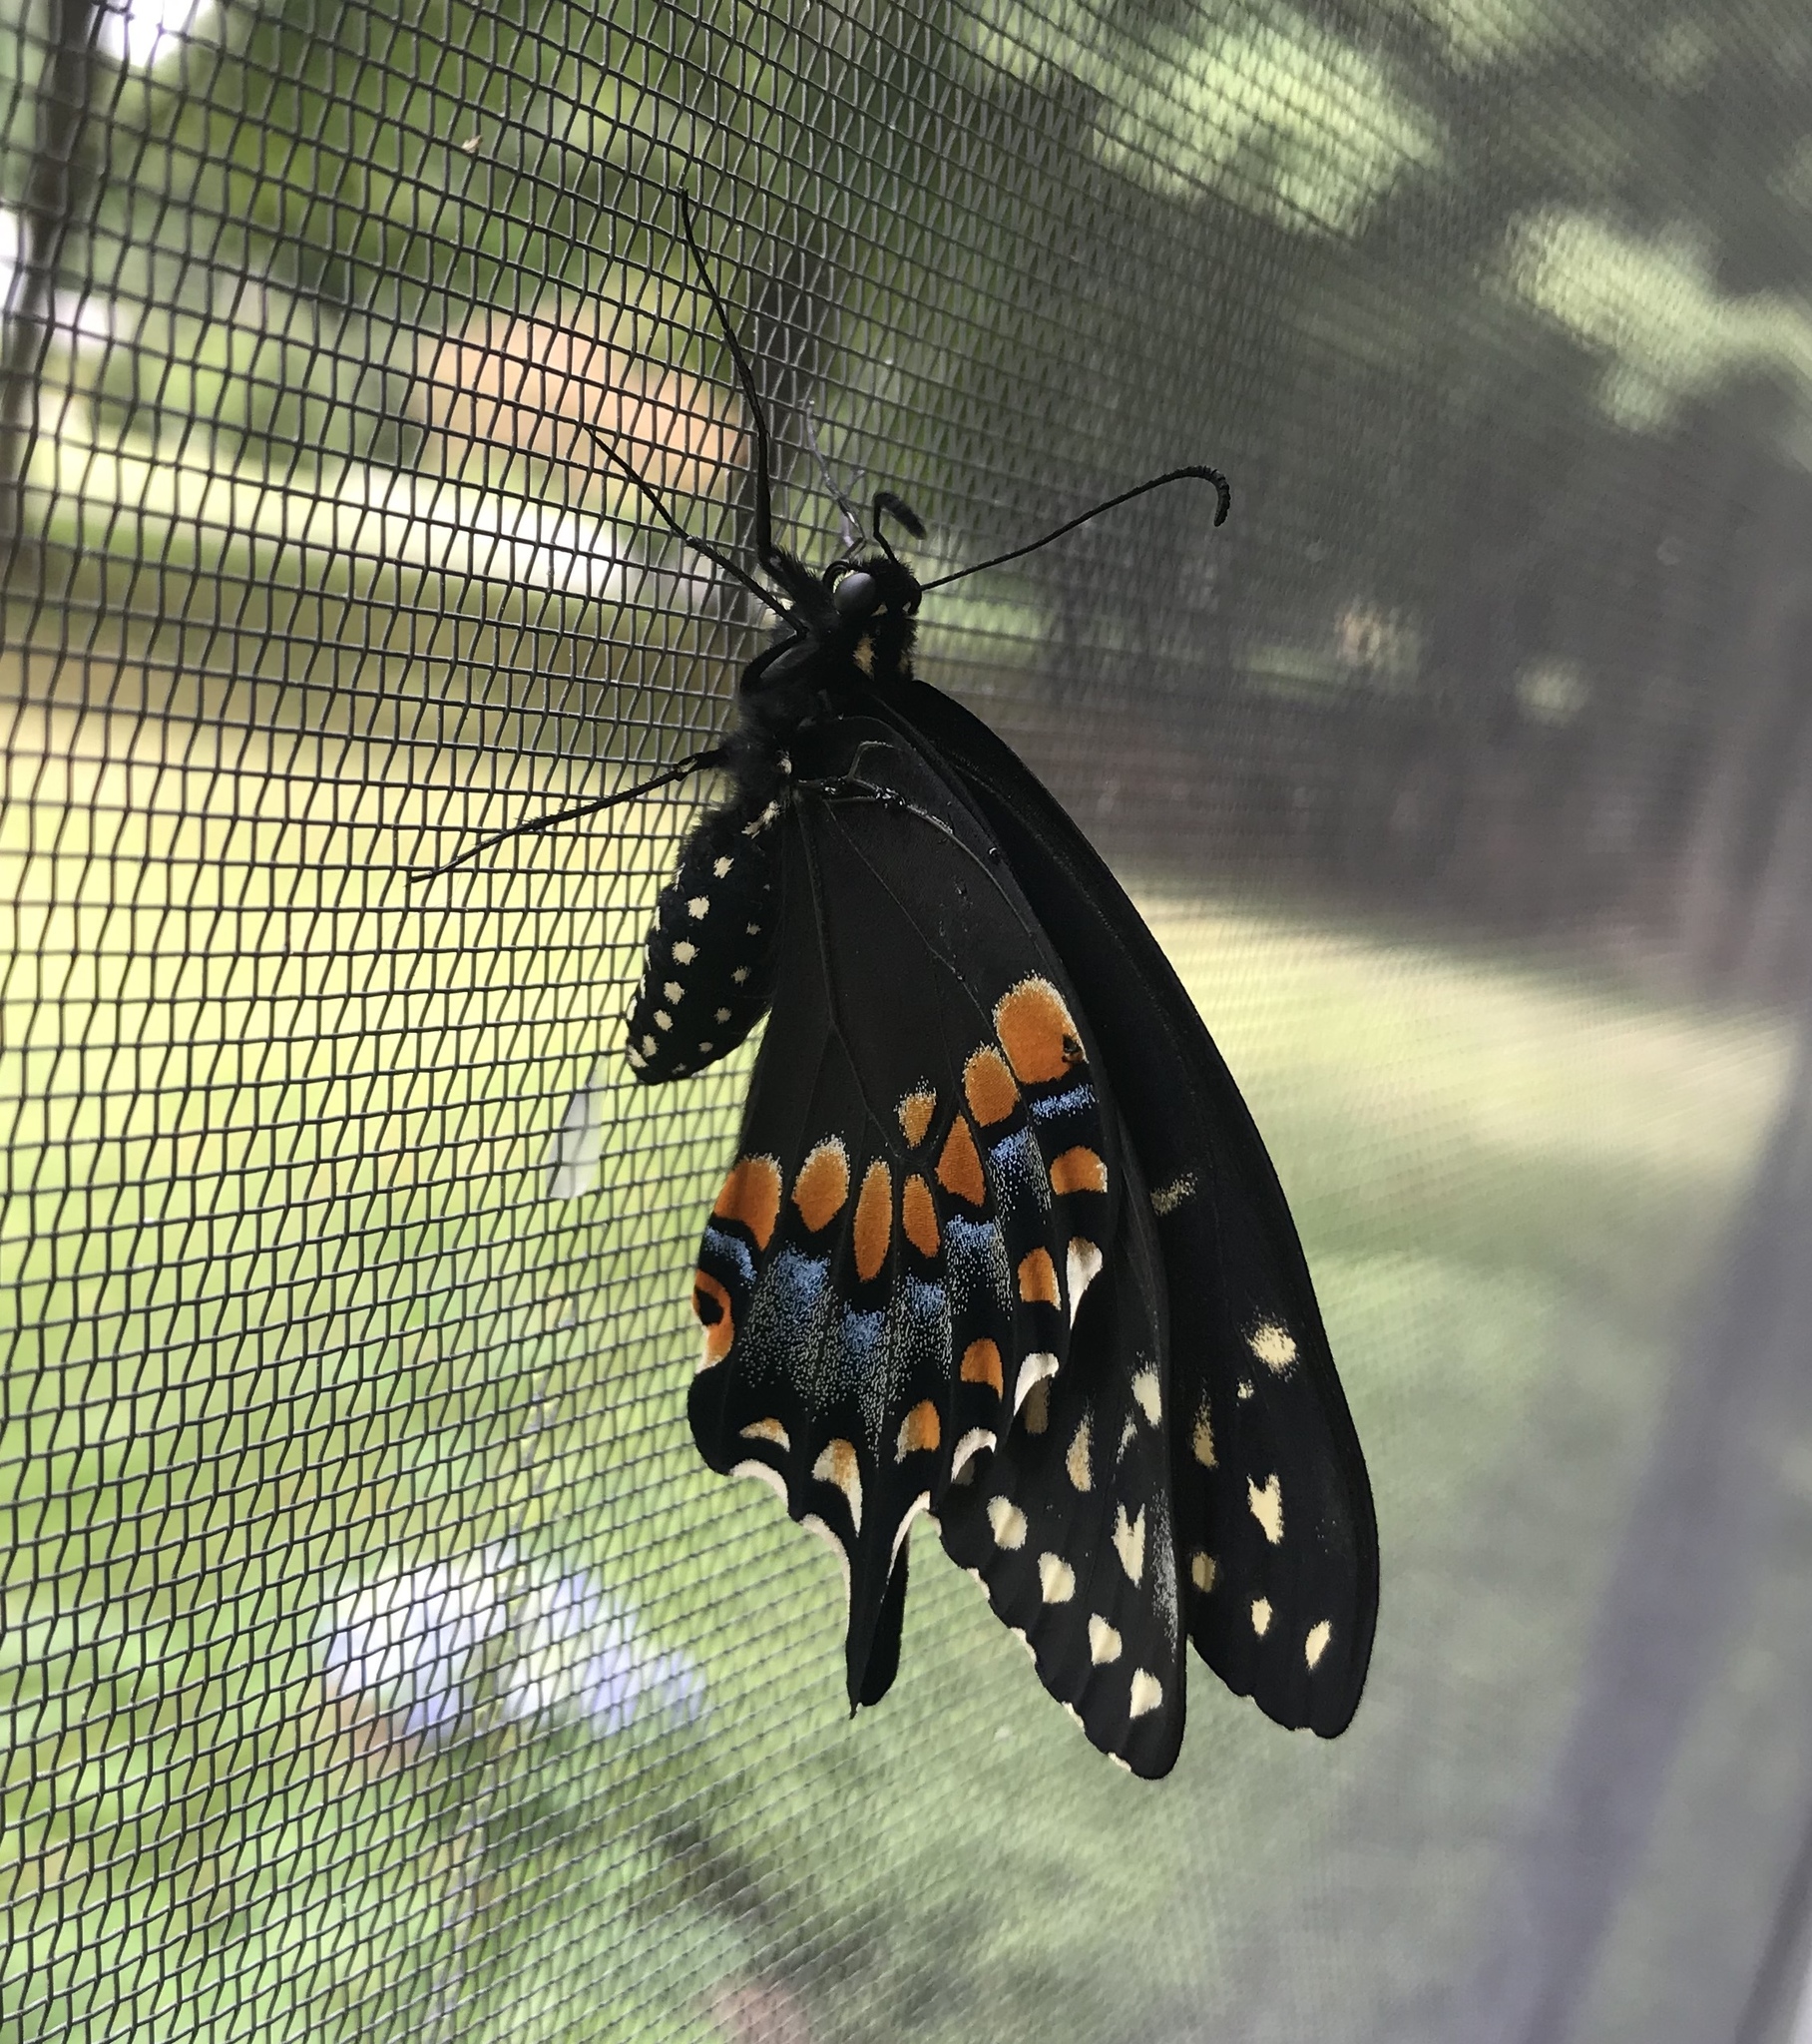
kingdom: Animalia
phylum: Arthropoda
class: Insecta
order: Lepidoptera
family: Papilionidae
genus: Papilio
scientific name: Papilio polyxenes
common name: Black swallowtail
